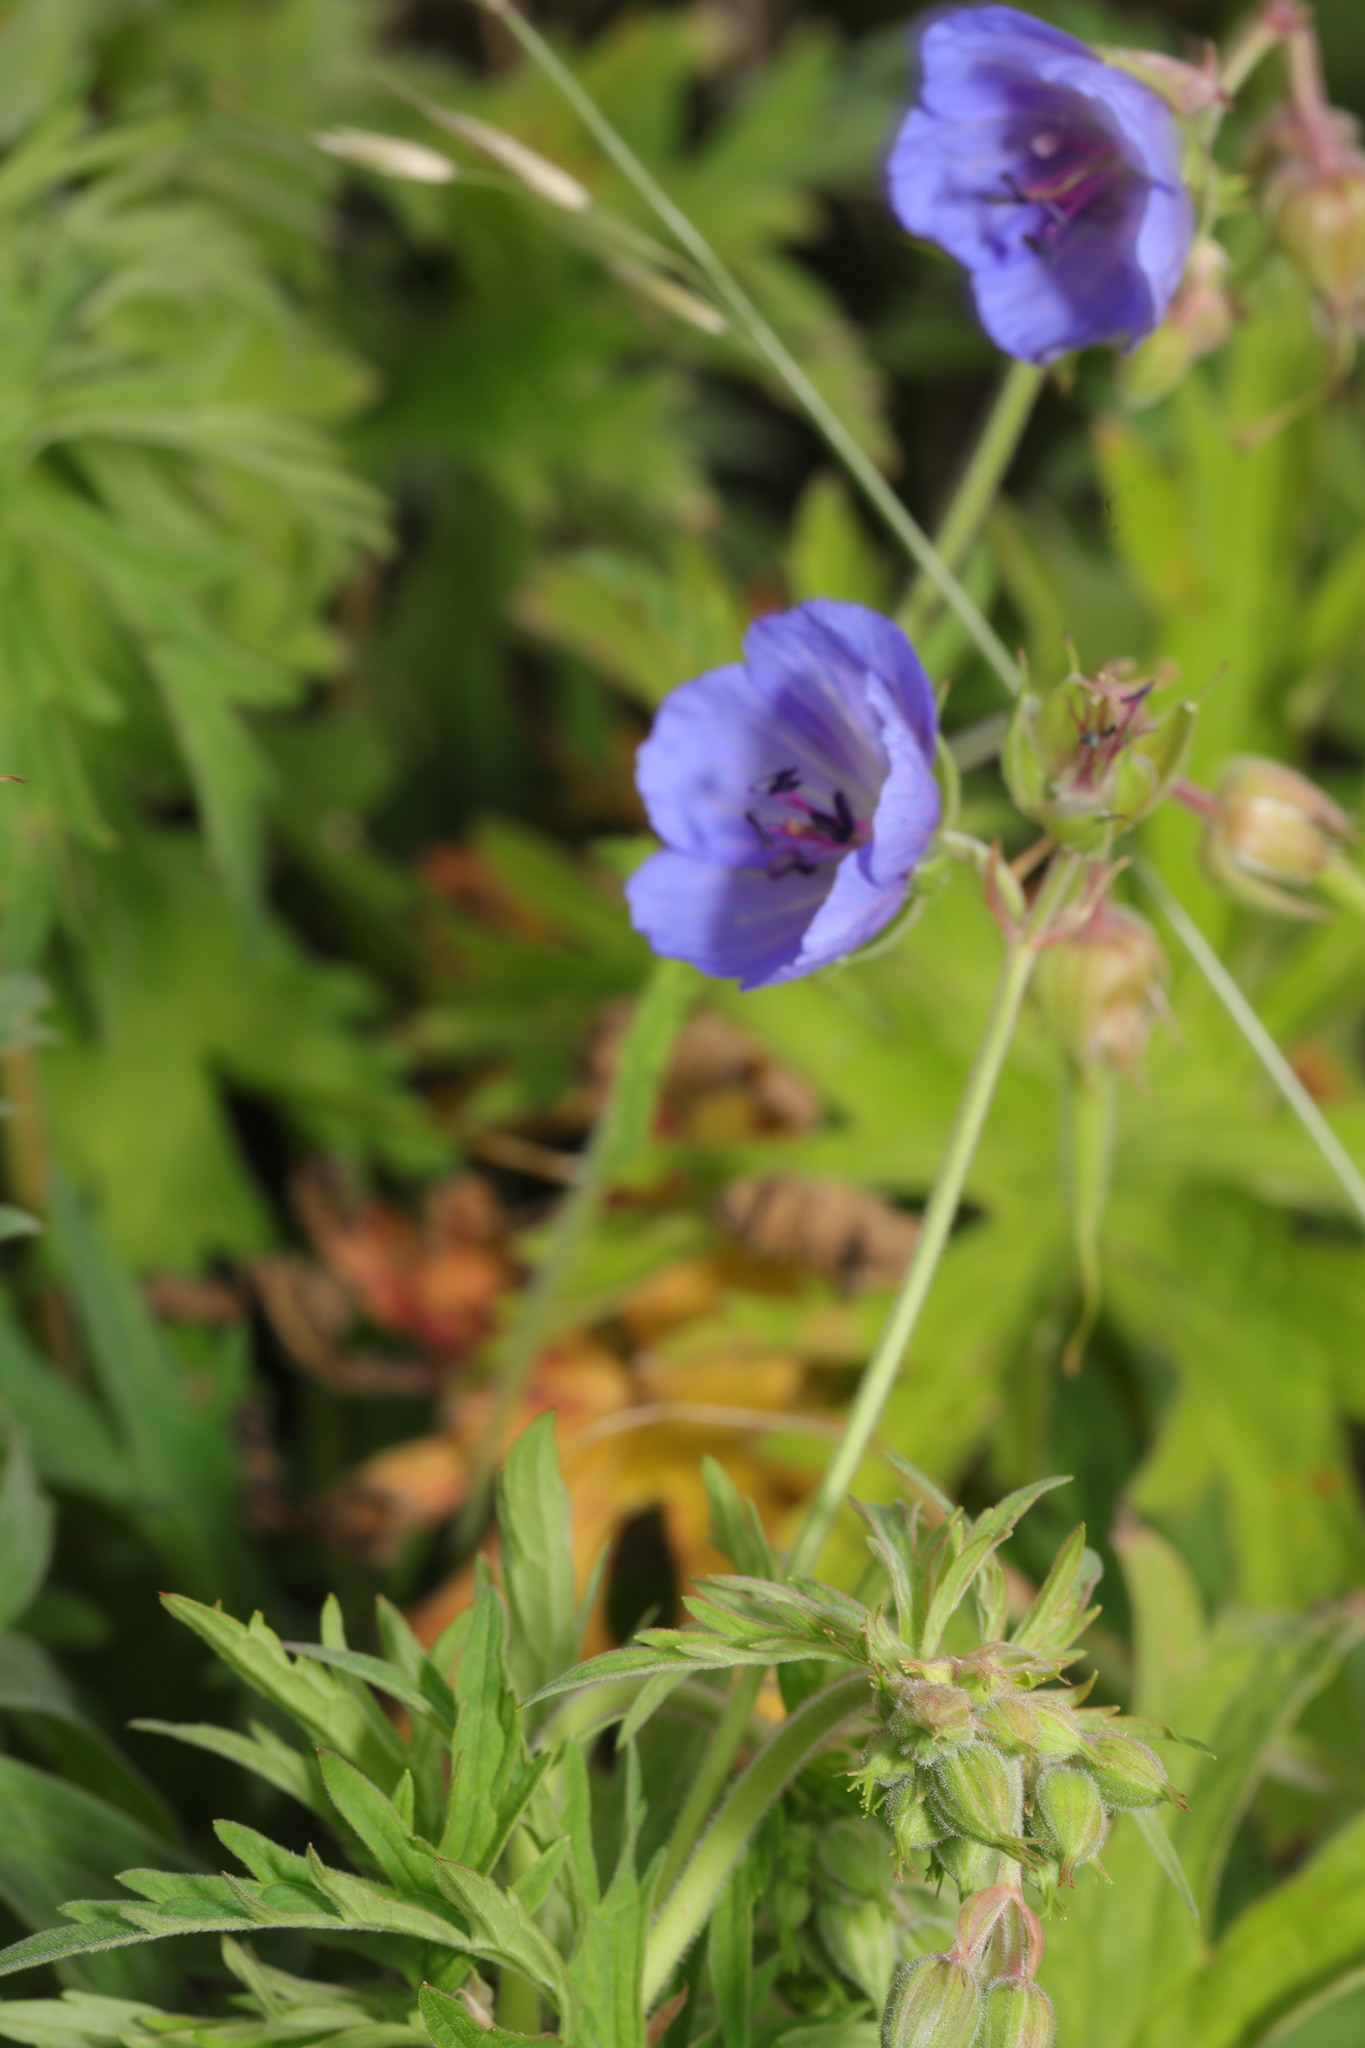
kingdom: Plantae
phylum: Tracheophyta
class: Magnoliopsida
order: Geraniales
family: Geraniaceae
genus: Geranium
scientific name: Geranium pratense
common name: Meadow crane's-bill
